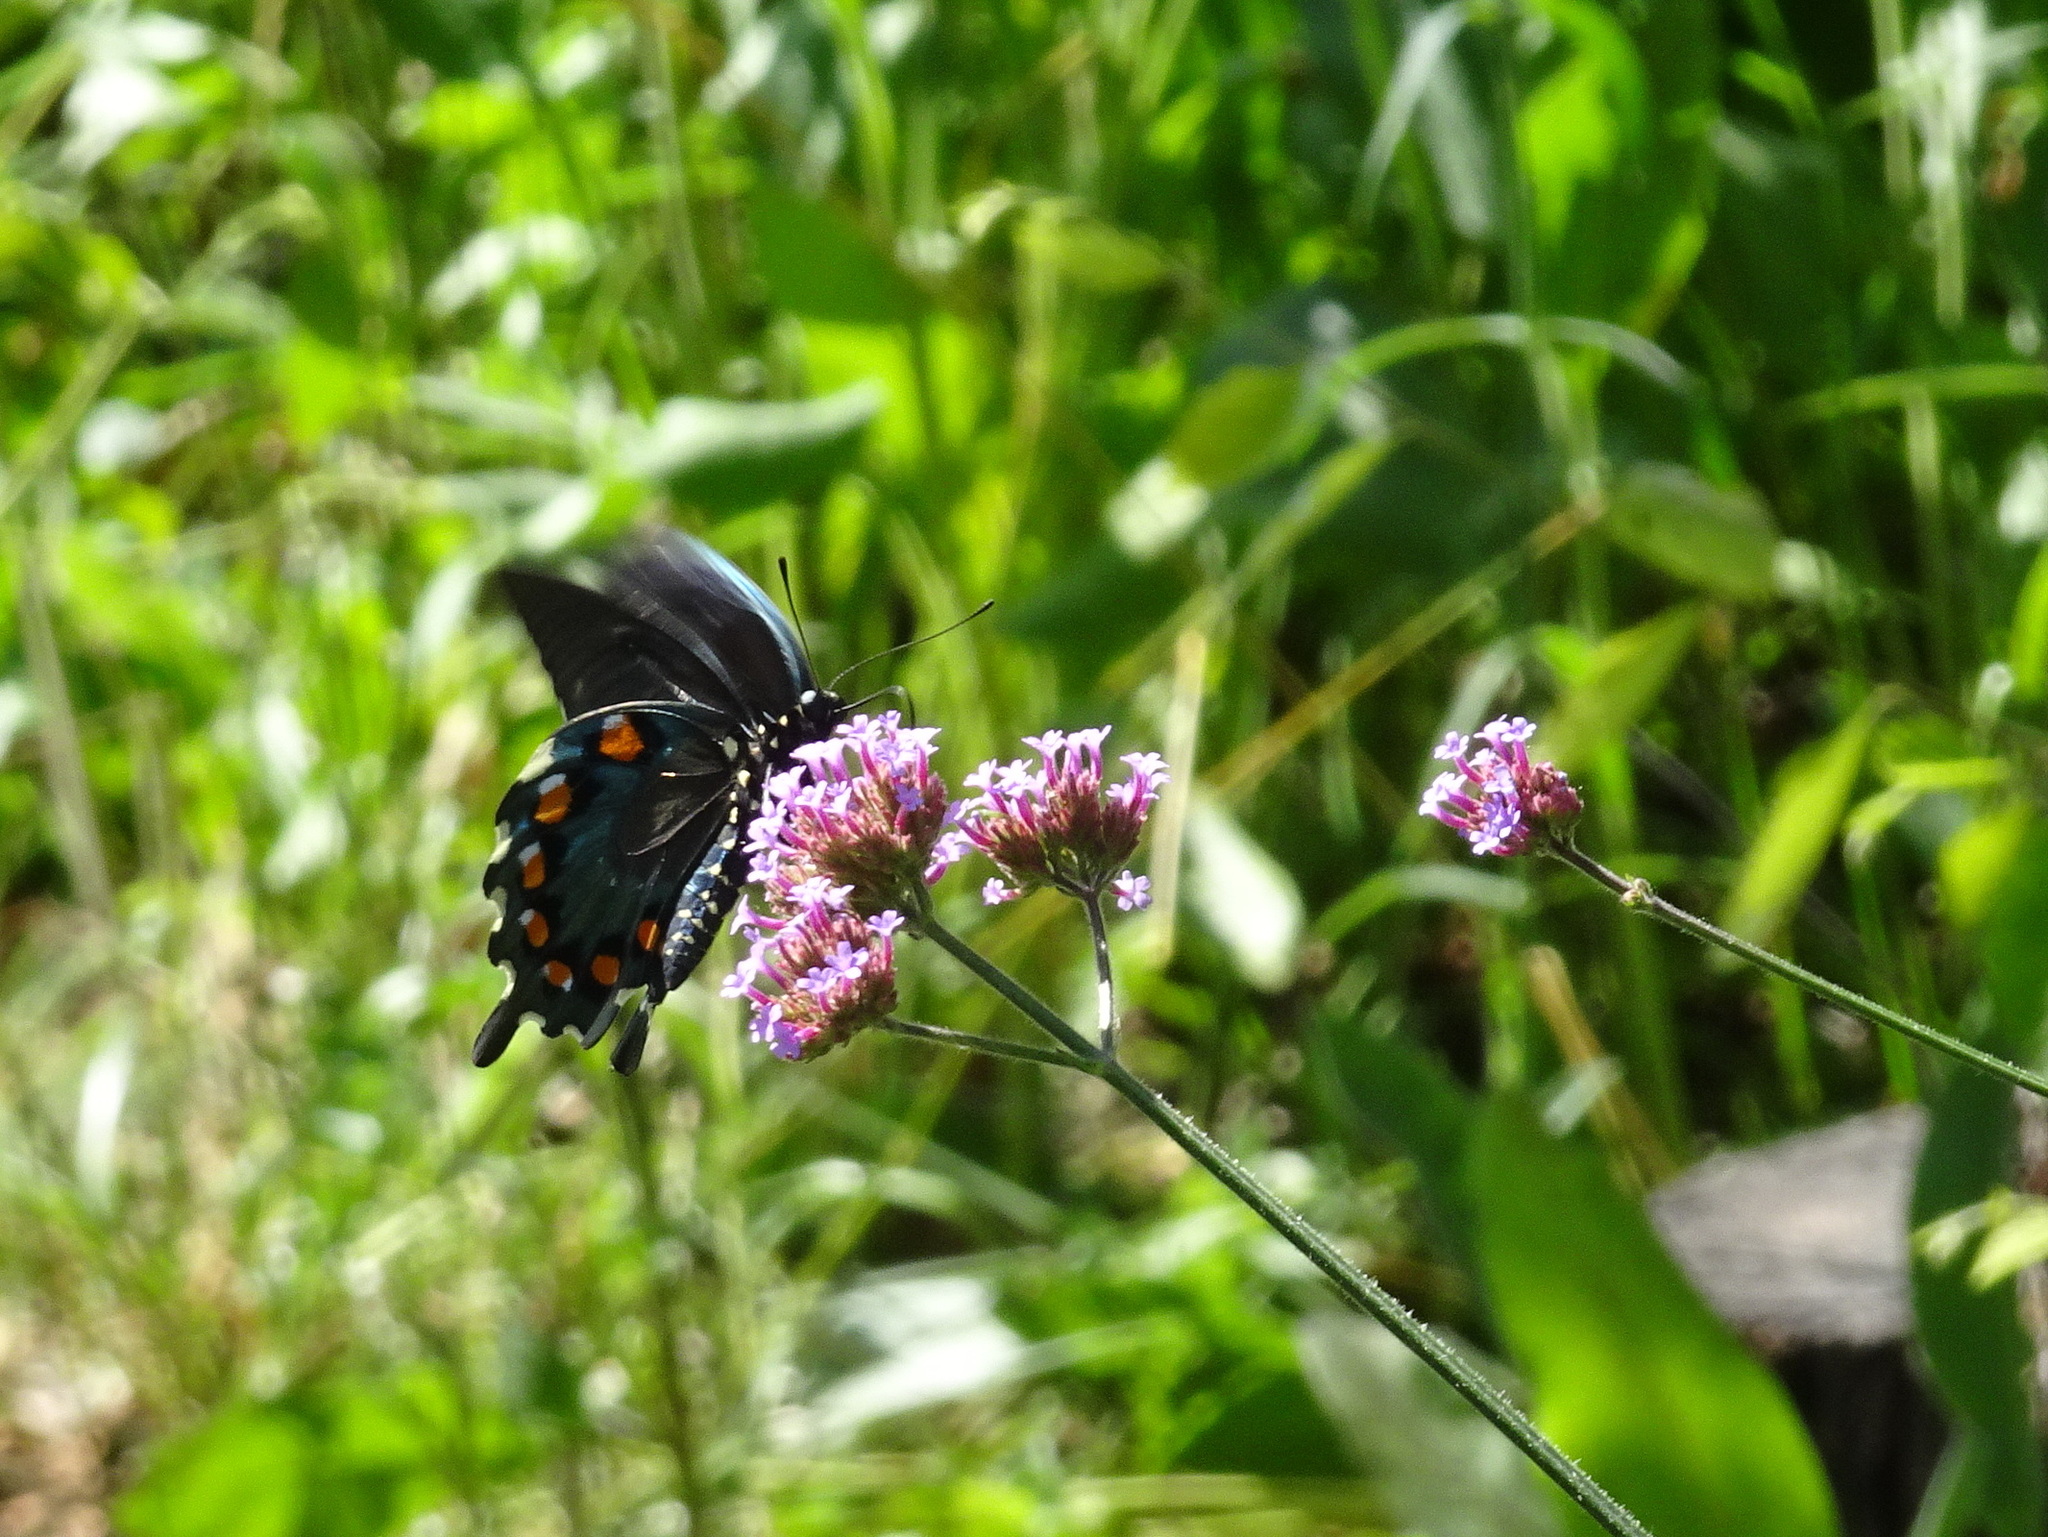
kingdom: Animalia
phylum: Arthropoda
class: Insecta
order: Lepidoptera
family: Papilionidae
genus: Battus
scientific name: Battus philenor
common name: Pipevine swallowtail
